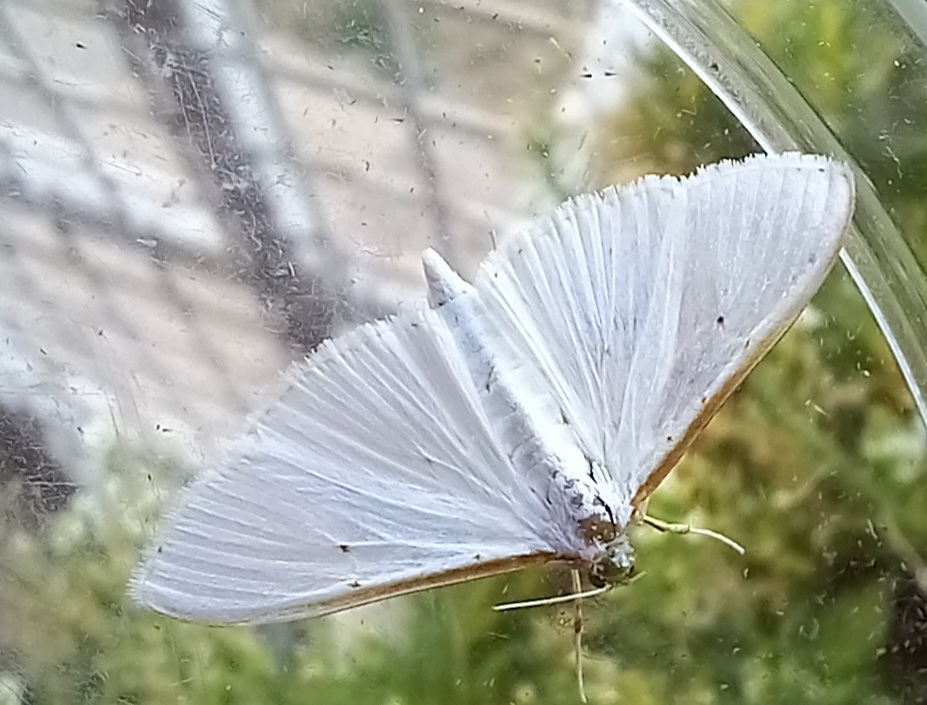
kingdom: Animalia
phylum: Arthropoda
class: Insecta
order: Lepidoptera
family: Crambidae
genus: Palpita
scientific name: Palpita vitrealis
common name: Olive-tree pearl
